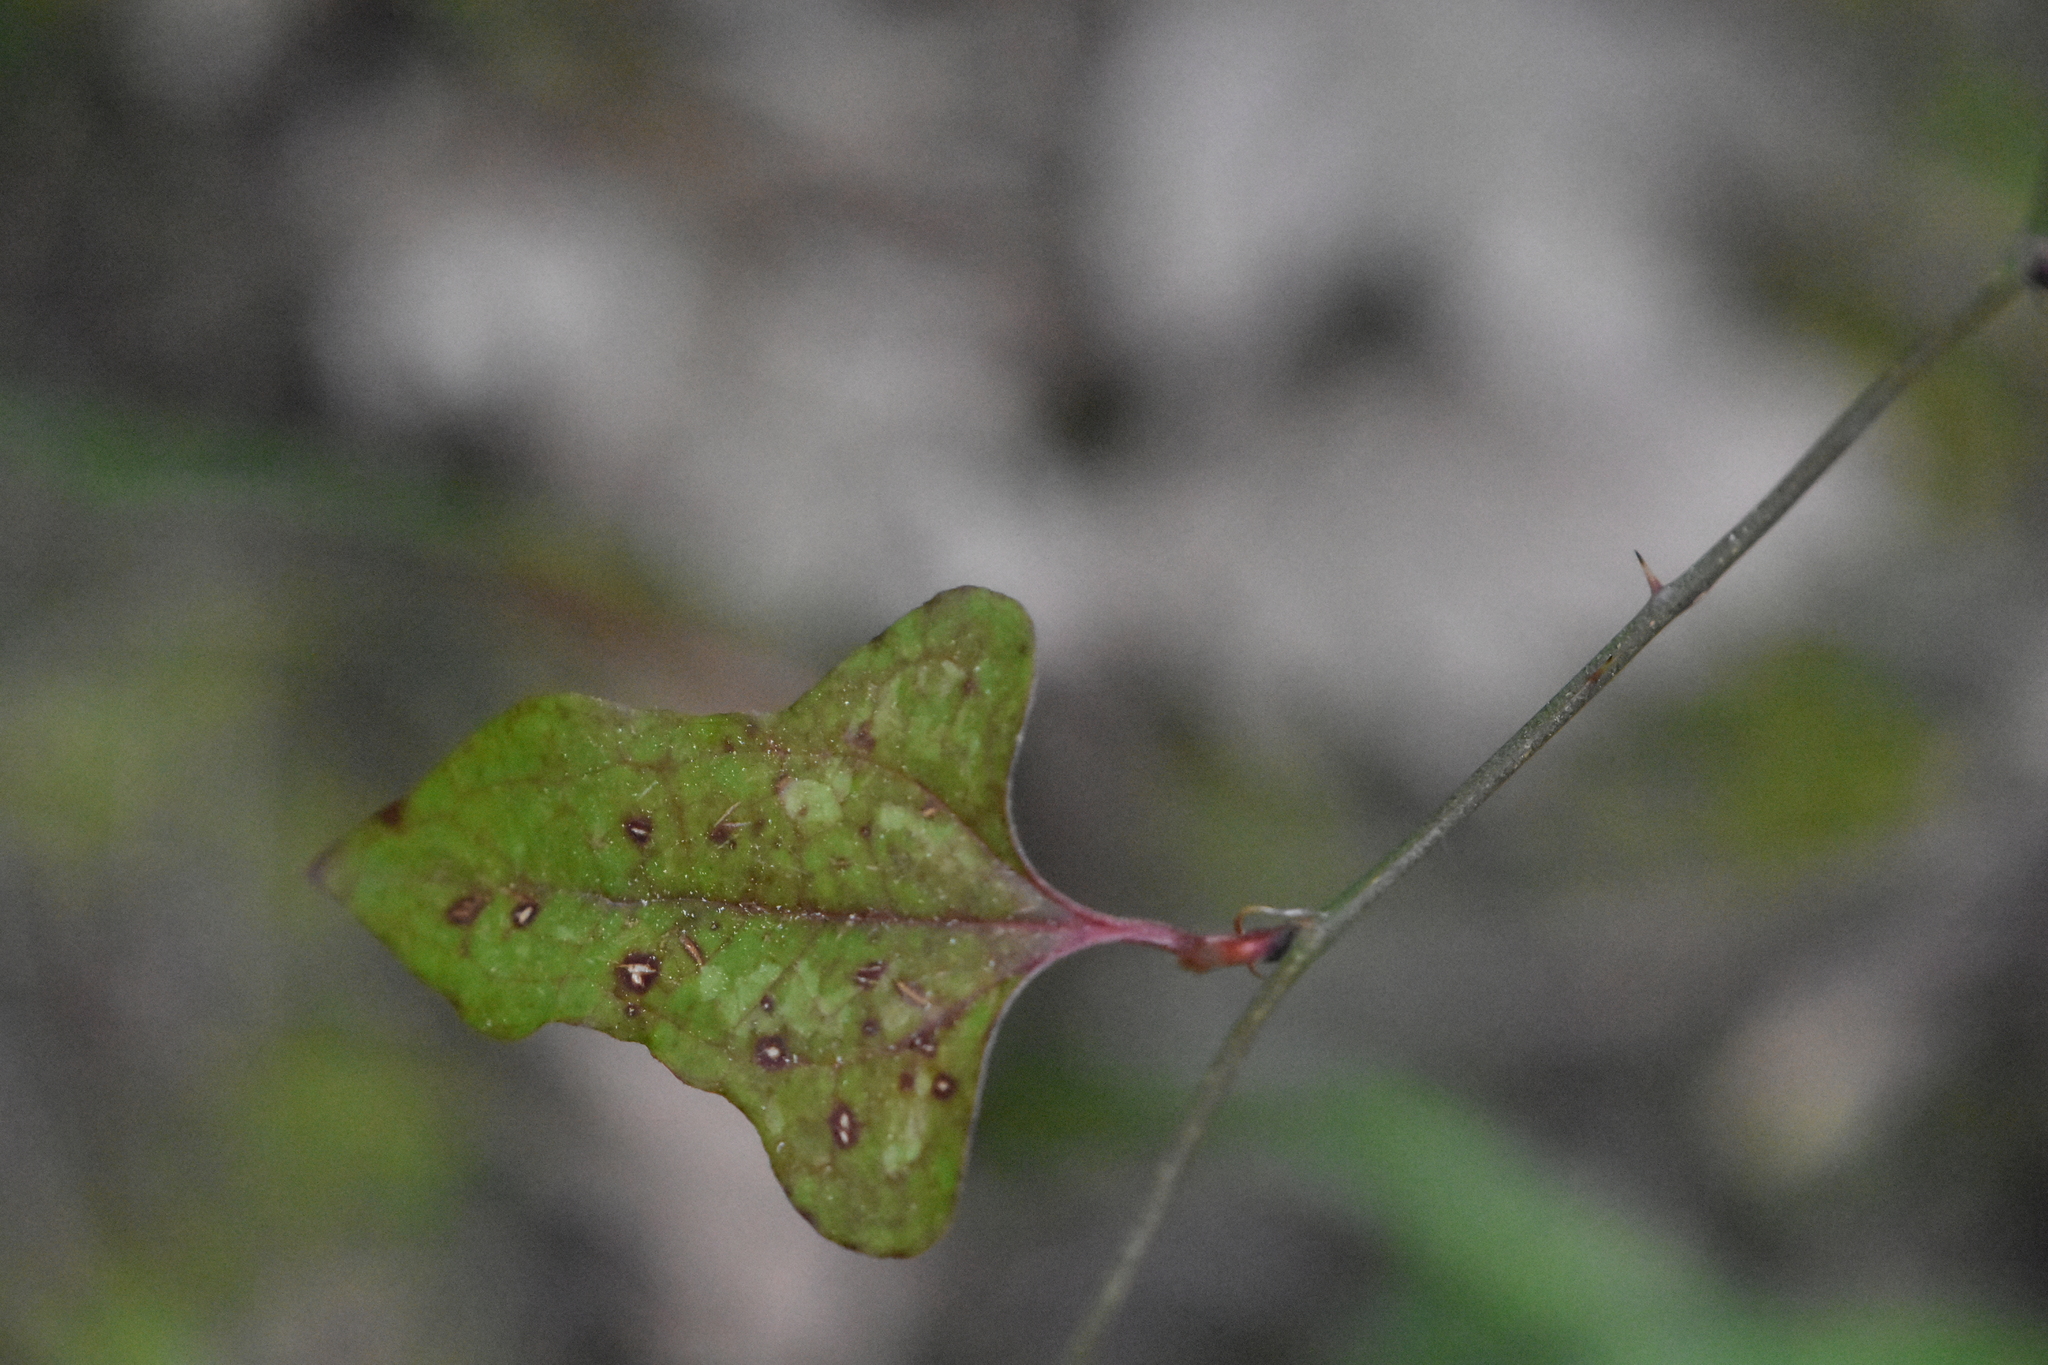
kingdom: Plantae
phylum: Tracheophyta
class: Liliopsida
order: Liliales
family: Smilacaceae
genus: Smilax
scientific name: Smilax excelsa
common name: Larger smilax
